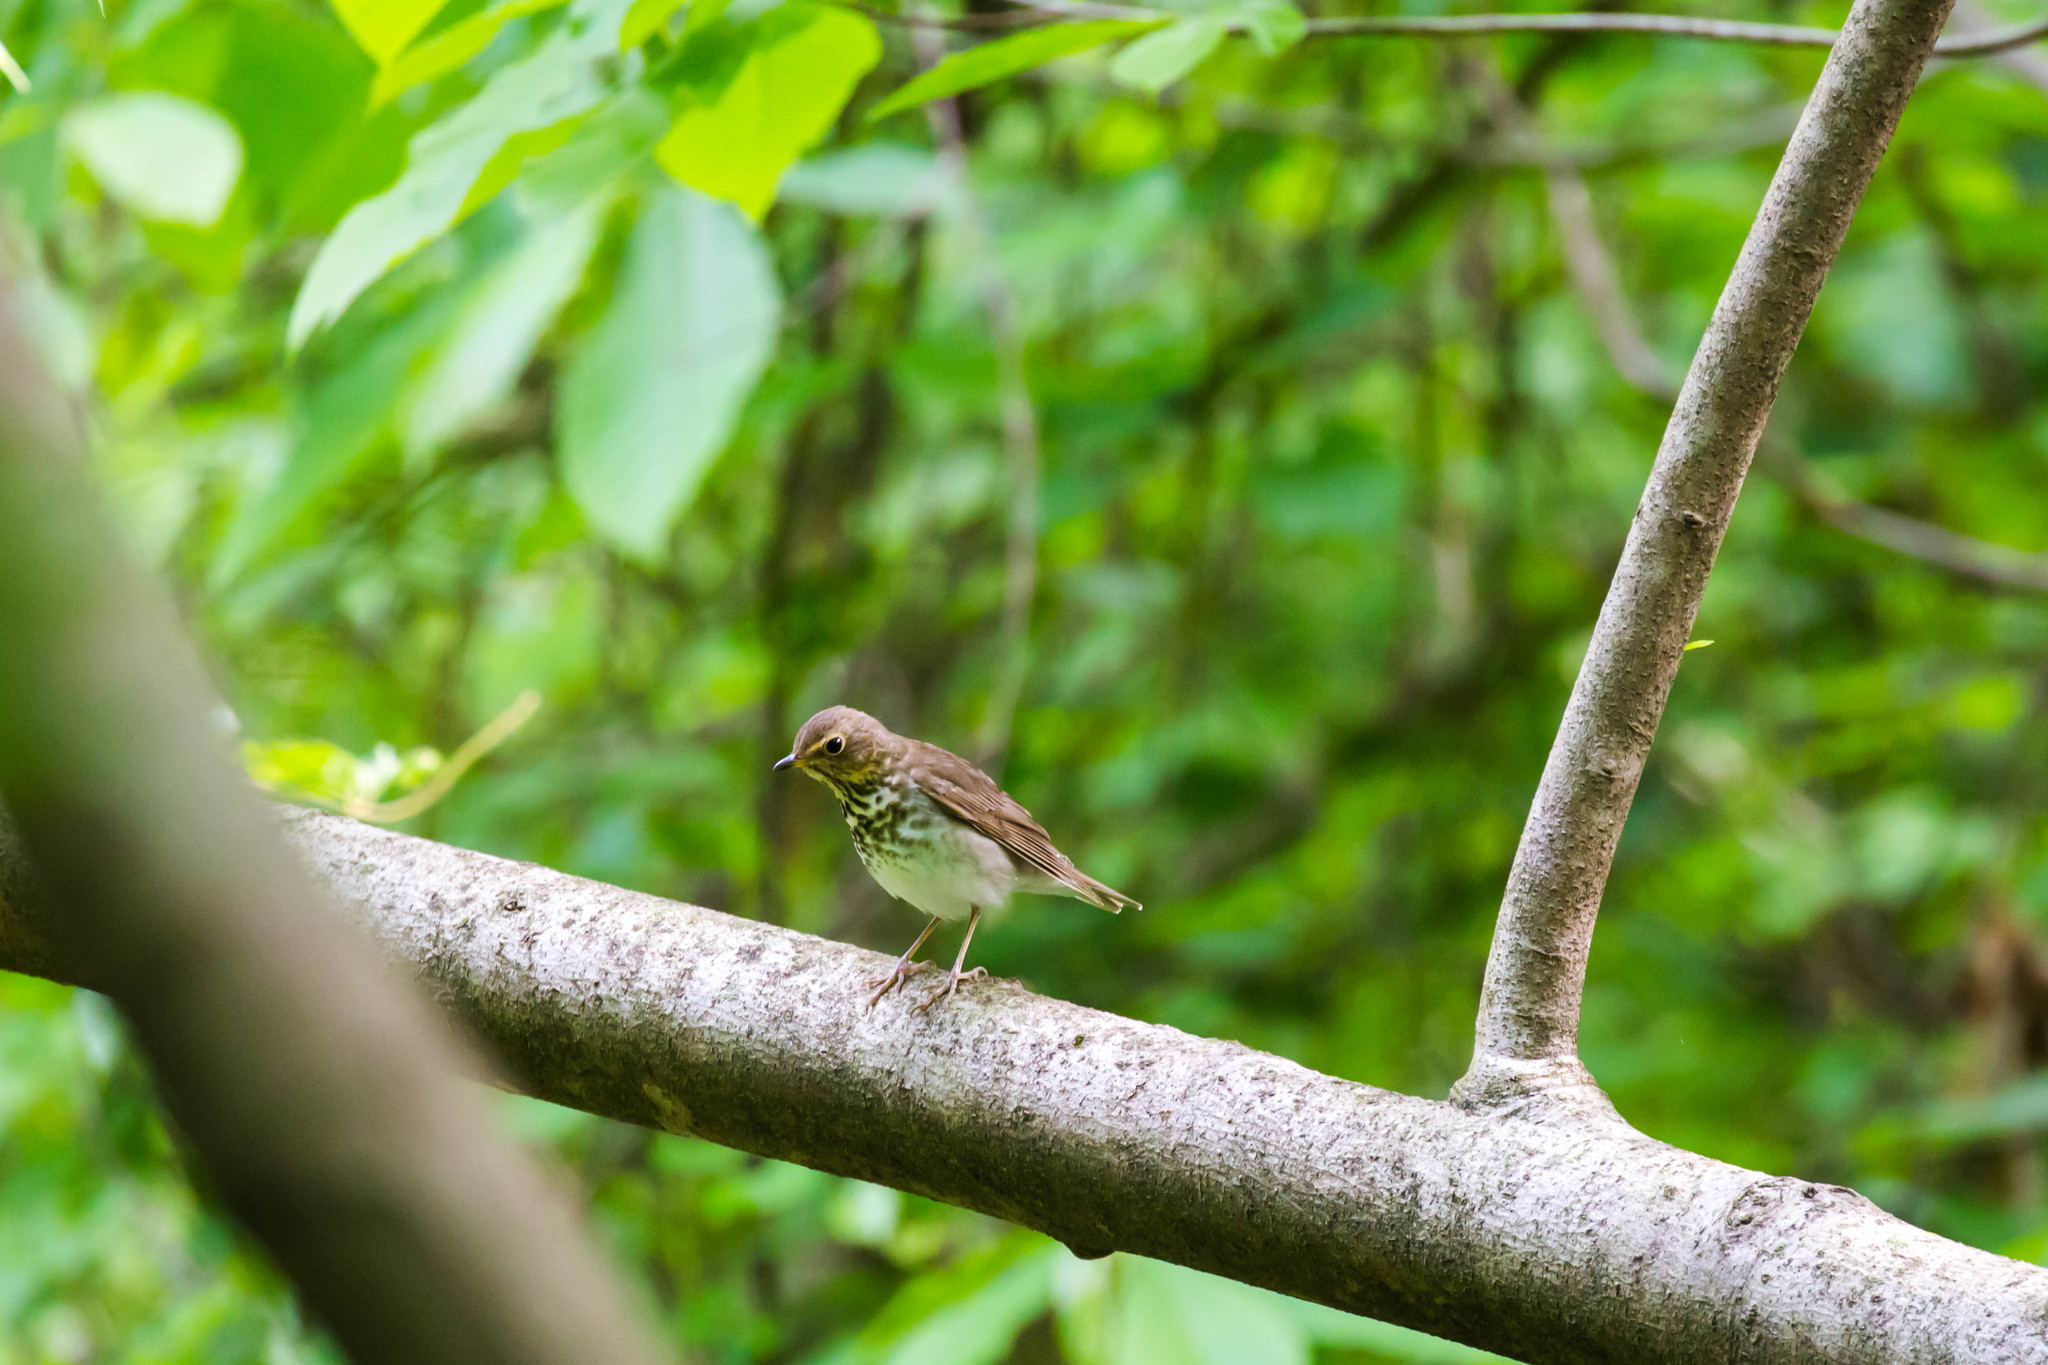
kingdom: Animalia
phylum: Chordata
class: Aves
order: Passeriformes
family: Turdidae
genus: Catharus
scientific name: Catharus ustulatus
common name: Swainson's thrush
